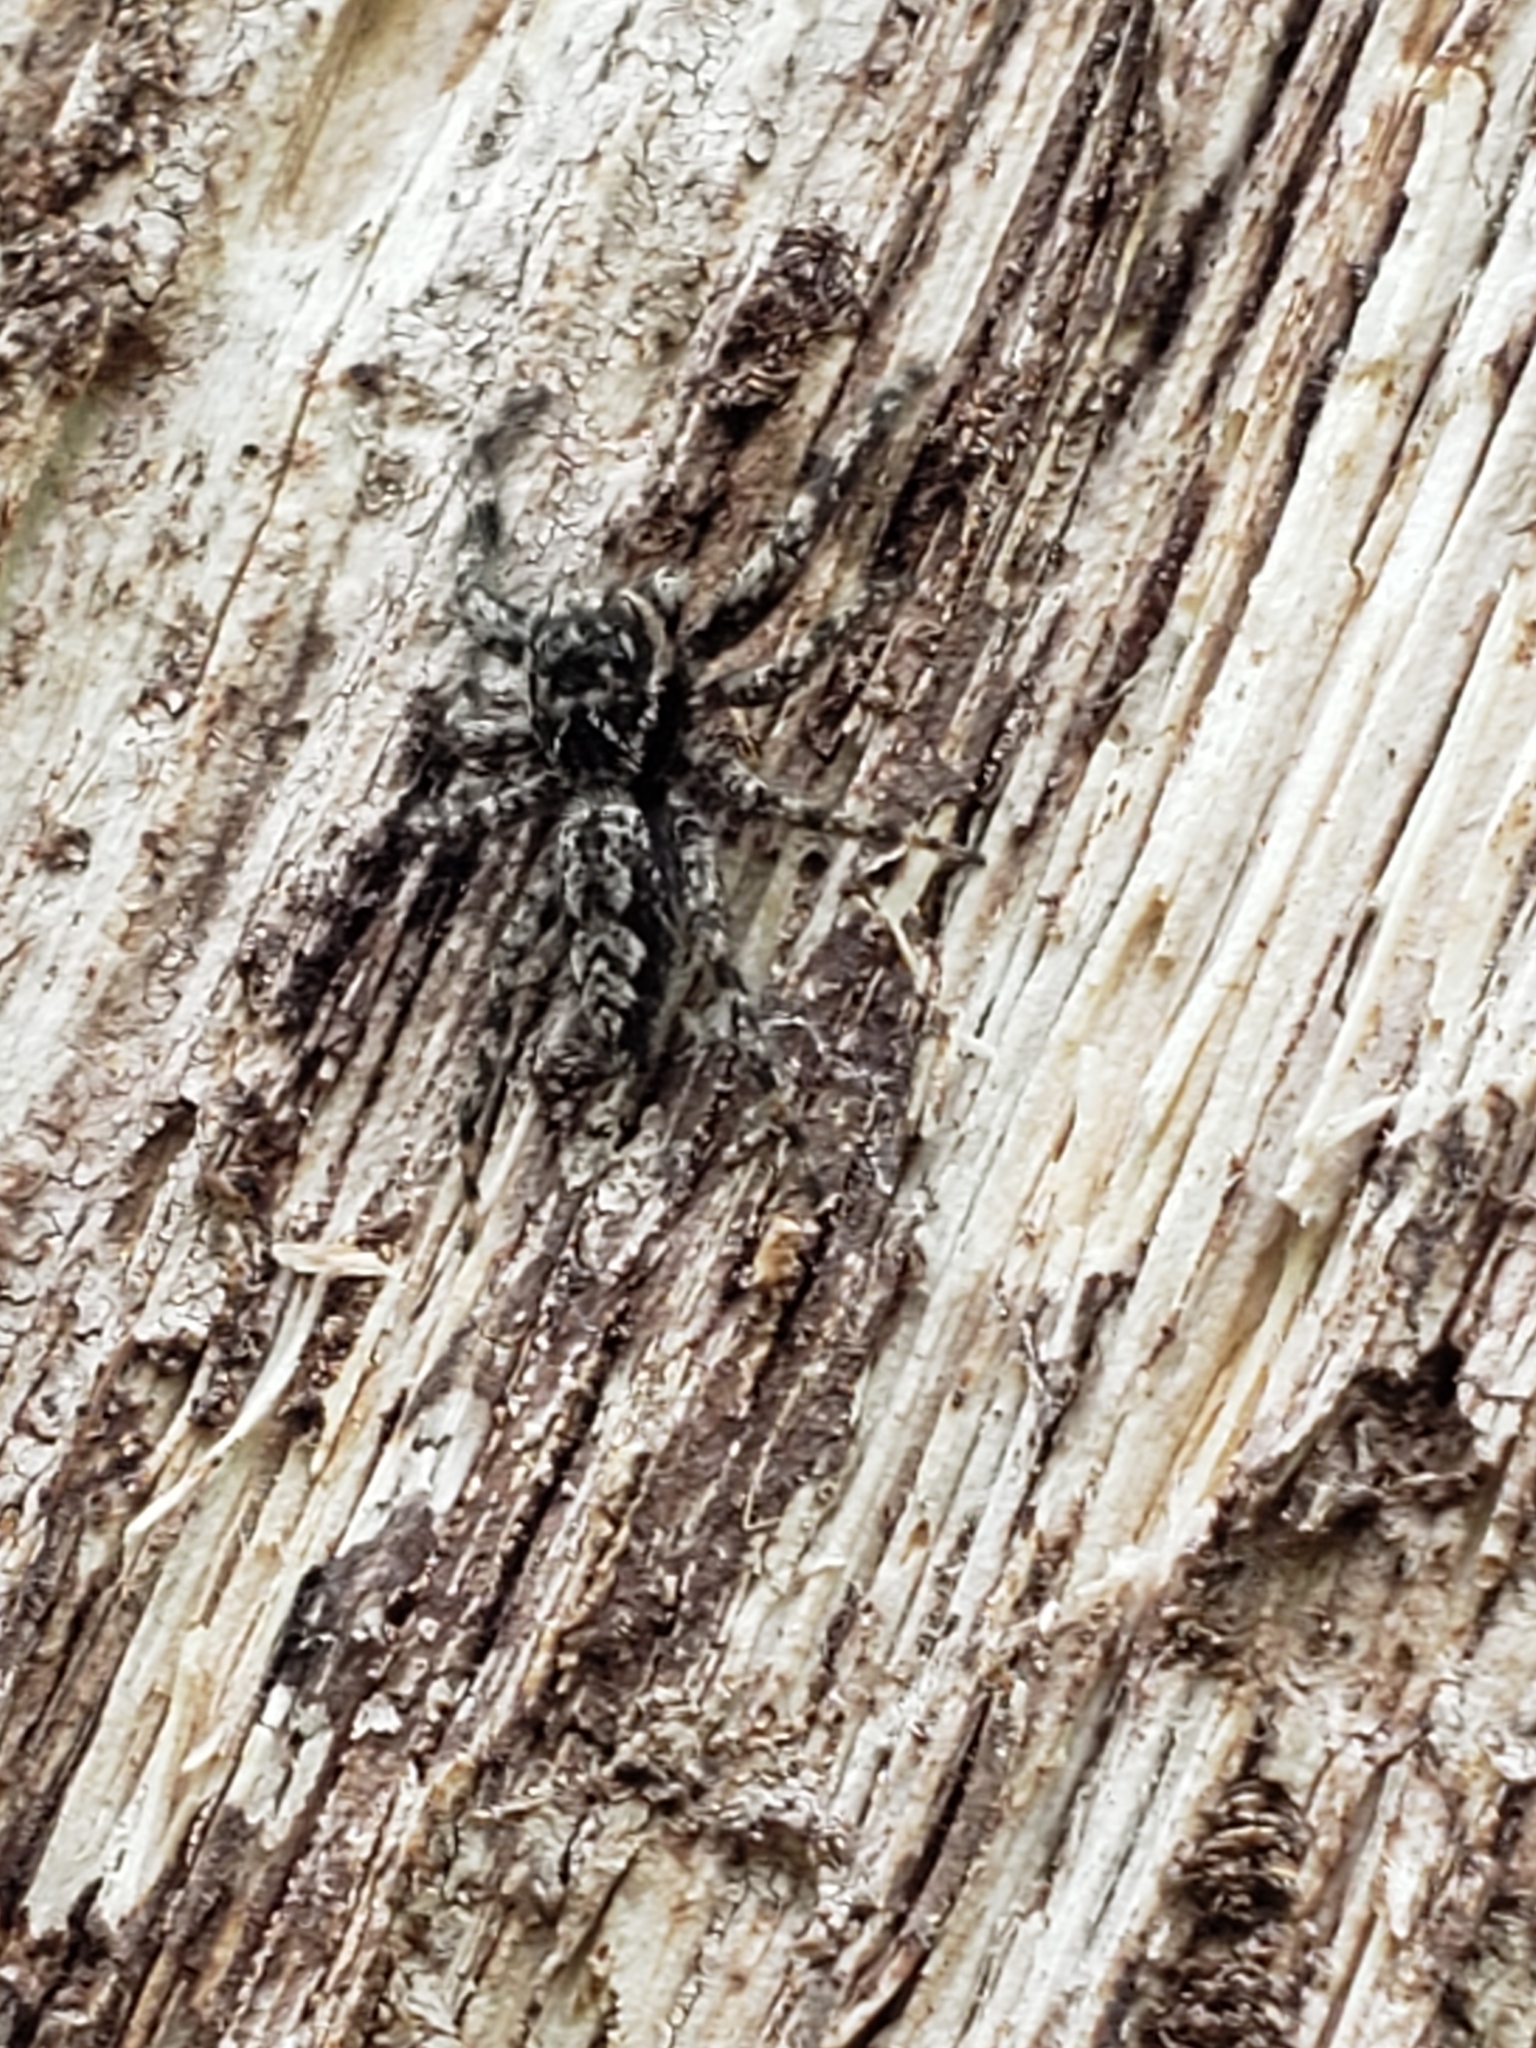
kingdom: Animalia
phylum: Arthropoda
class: Arachnida
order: Araneae
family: Salticidae
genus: Platycryptus
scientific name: Platycryptus undatus
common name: Tan jumping spider
